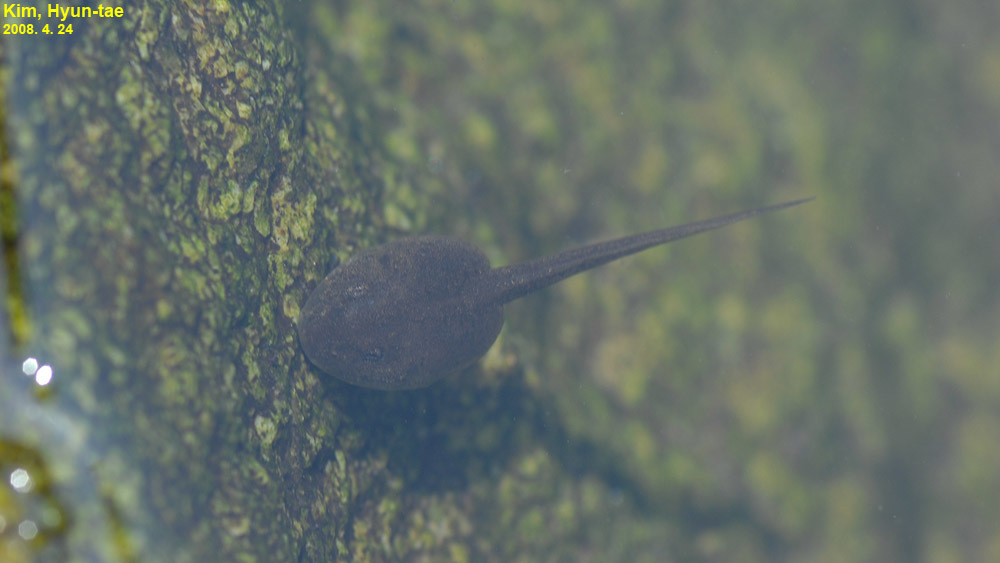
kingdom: Animalia
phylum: Chordata
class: Amphibia
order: Anura
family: Ranidae
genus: Rana
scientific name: Rana uenoi
